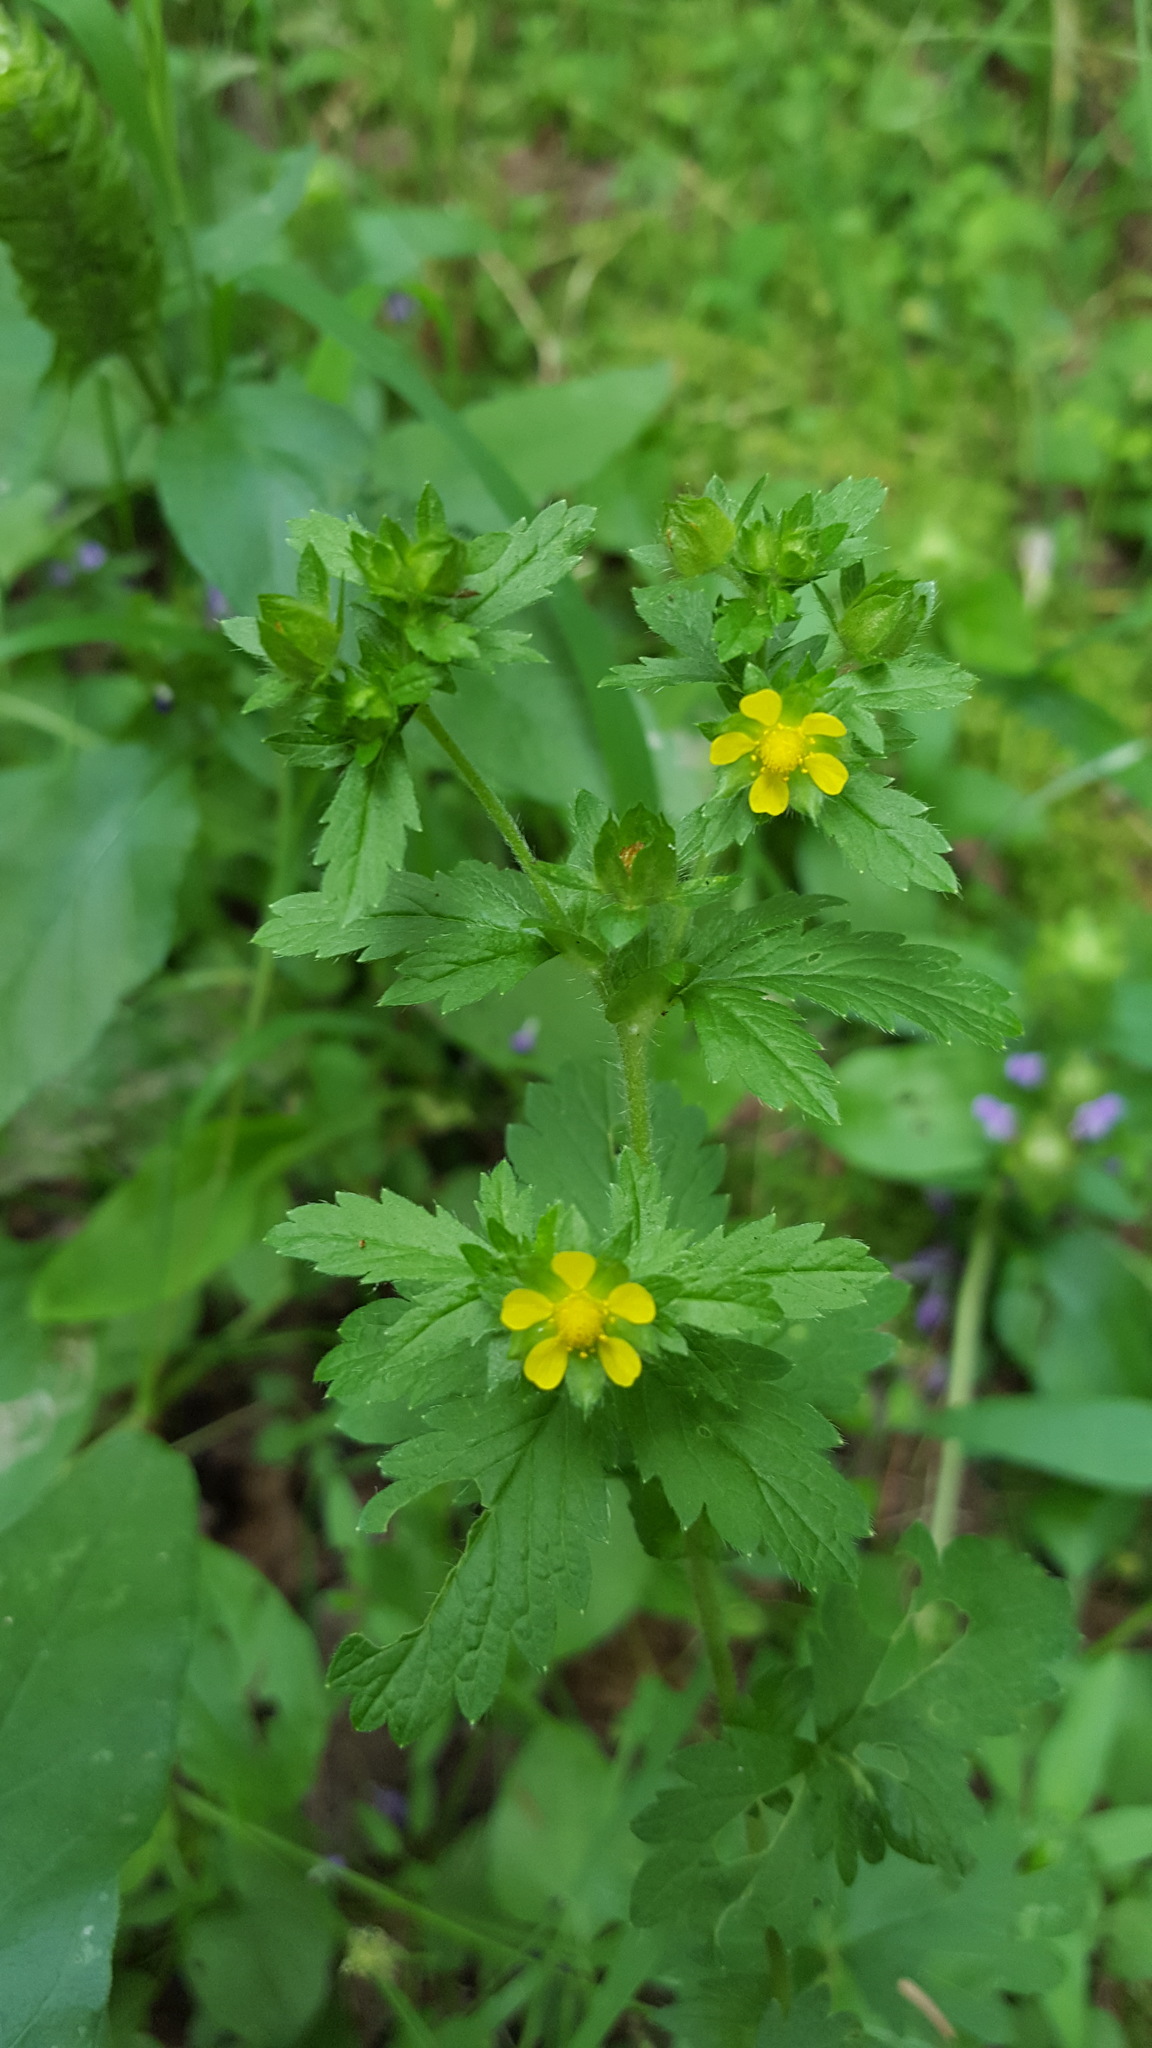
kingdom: Plantae
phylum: Tracheophyta
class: Magnoliopsida
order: Rosales
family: Rosaceae
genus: Potentilla
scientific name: Potentilla norvegica
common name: Ternate-leaved cinquefoil
